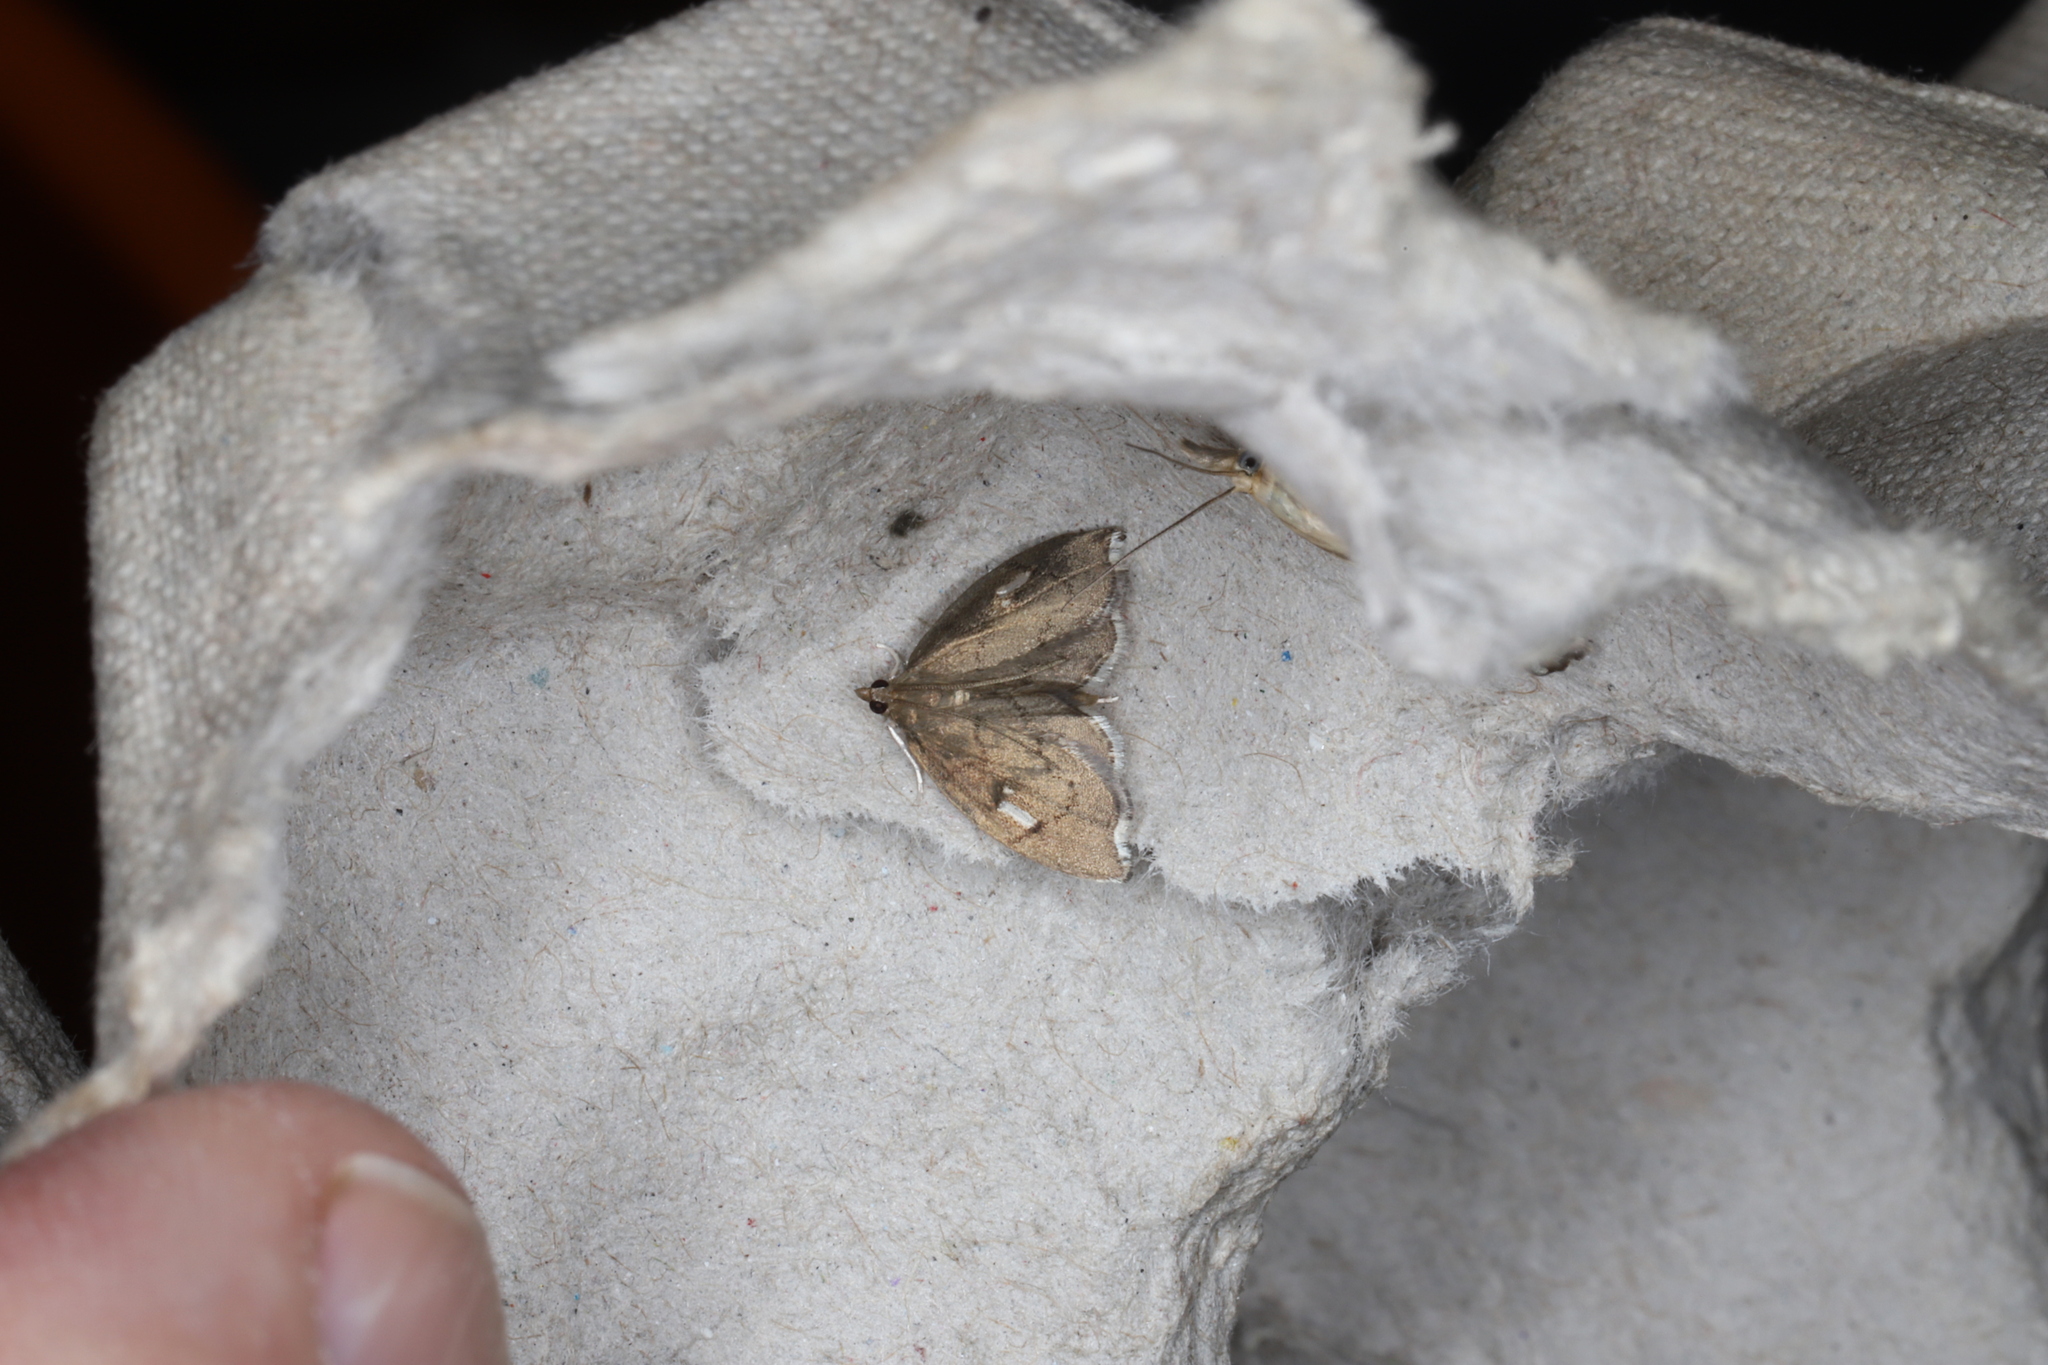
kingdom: Animalia
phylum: Arthropoda
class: Insecta
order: Lepidoptera
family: Crambidae
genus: Perispasta
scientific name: Perispasta caeculalis
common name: Titian peale's moth
